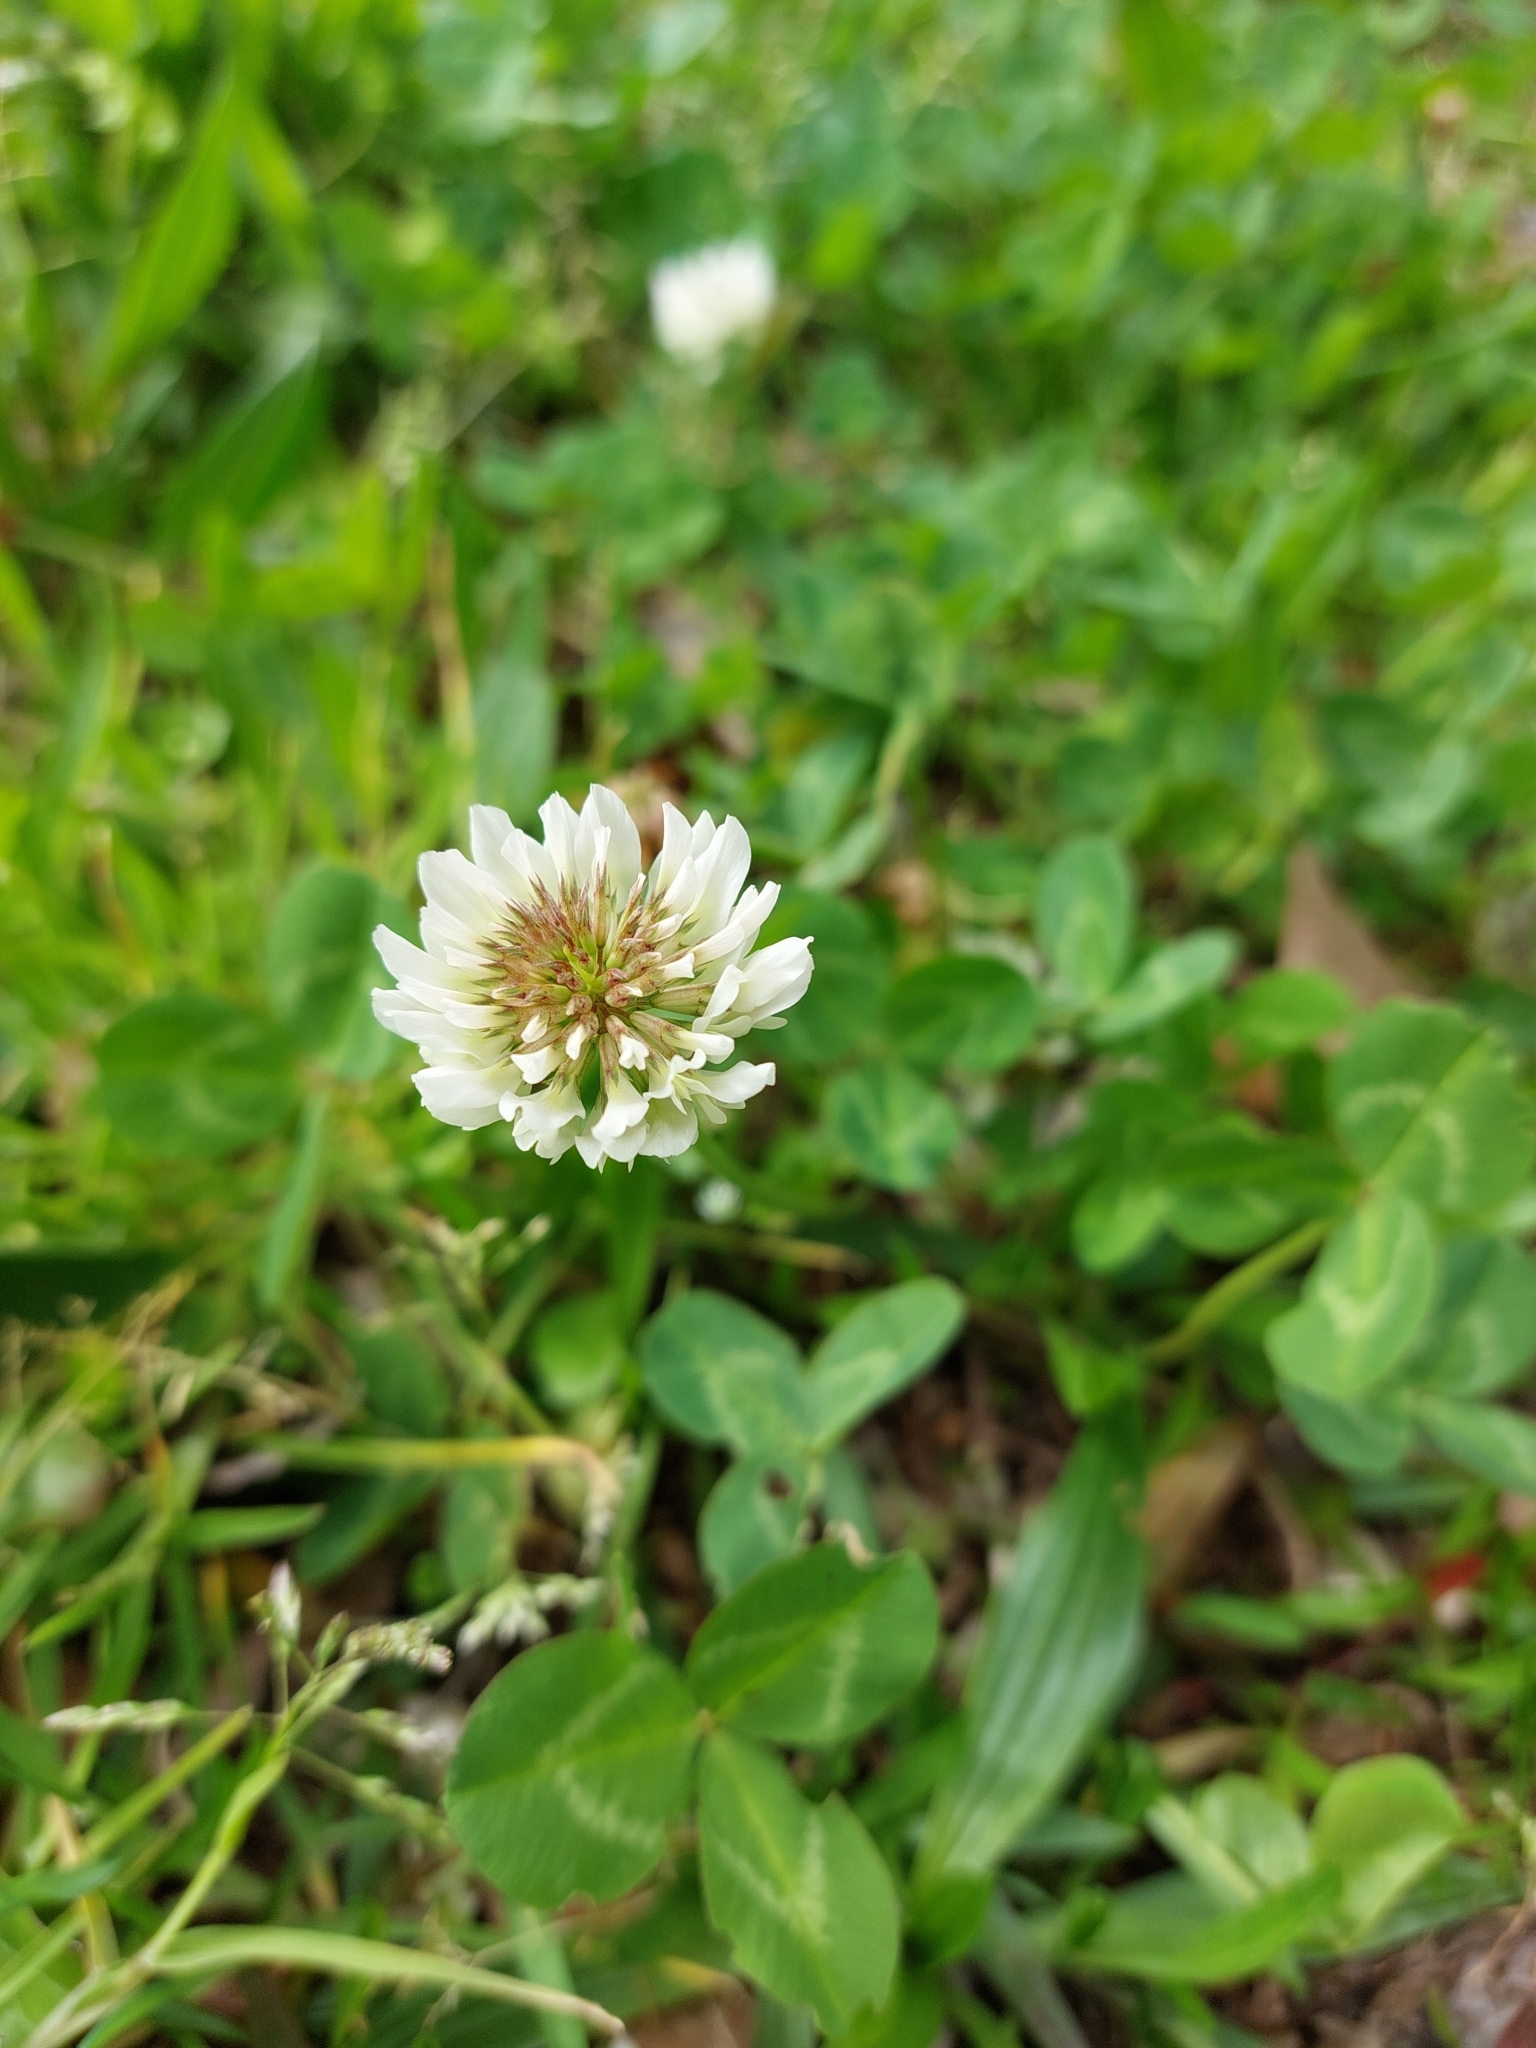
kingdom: Plantae
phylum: Tracheophyta
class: Magnoliopsida
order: Fabales
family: Fabaceae
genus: Trifolium
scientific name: Trifolium repens
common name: White clover
